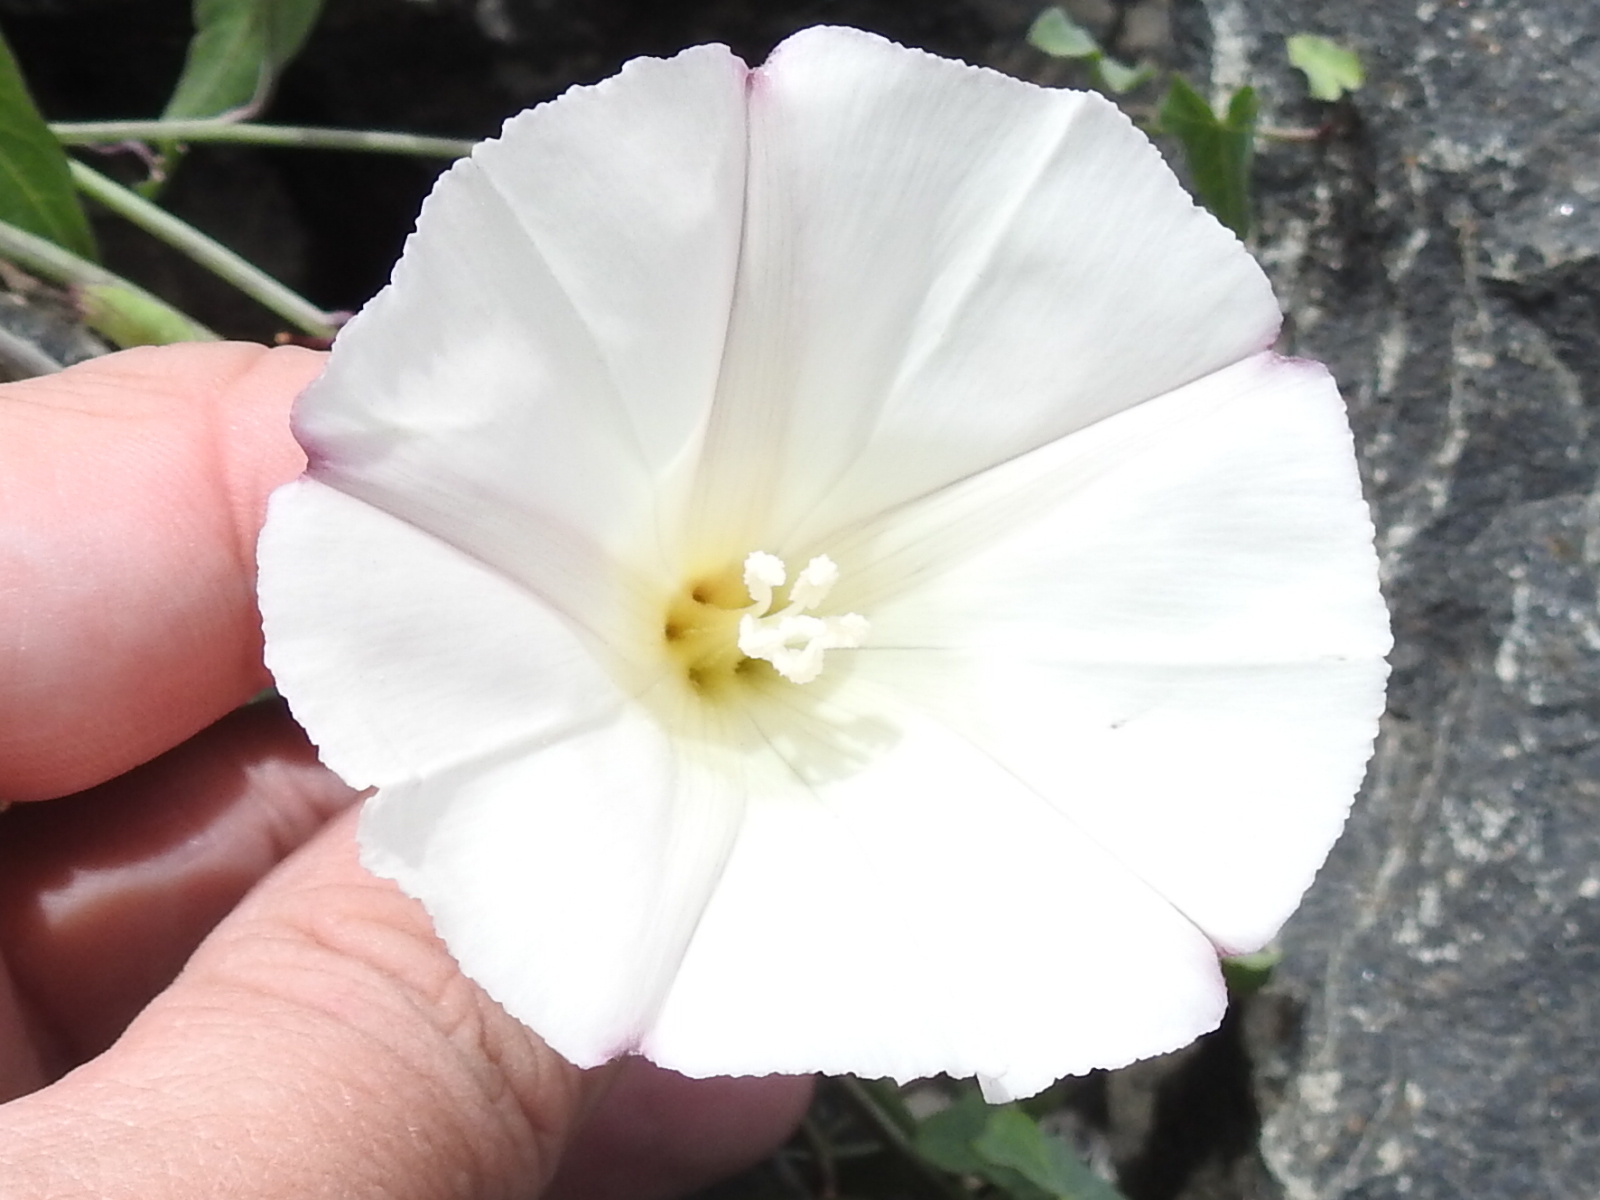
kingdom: Plantae
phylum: Tracheophyta
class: Magnoliopsida
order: Solanales
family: Convolvulaceae
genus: Calystegia
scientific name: Calystegia purpurata
